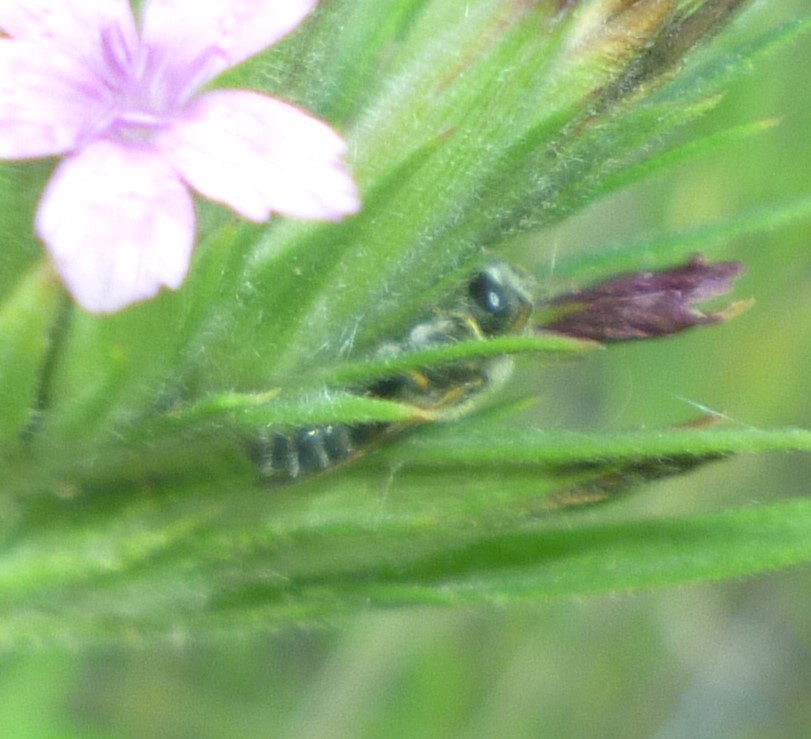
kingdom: Animalia
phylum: Arthropoda
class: Insecta
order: Hymenoptera
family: Halictidae
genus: Halictus
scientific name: Halictus ligatus
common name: Ligated furrow bee
